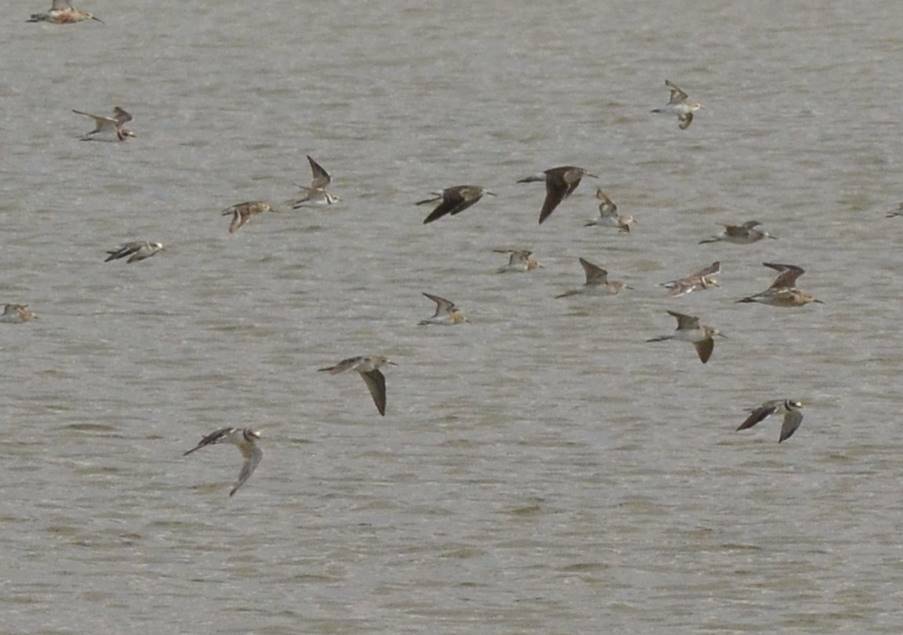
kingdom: Animalia
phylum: Chordata
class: Aves
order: Charadriiformes
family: Charadriidae
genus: Charadrius
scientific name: Charadrius hiaticula
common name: Common ringed plover
